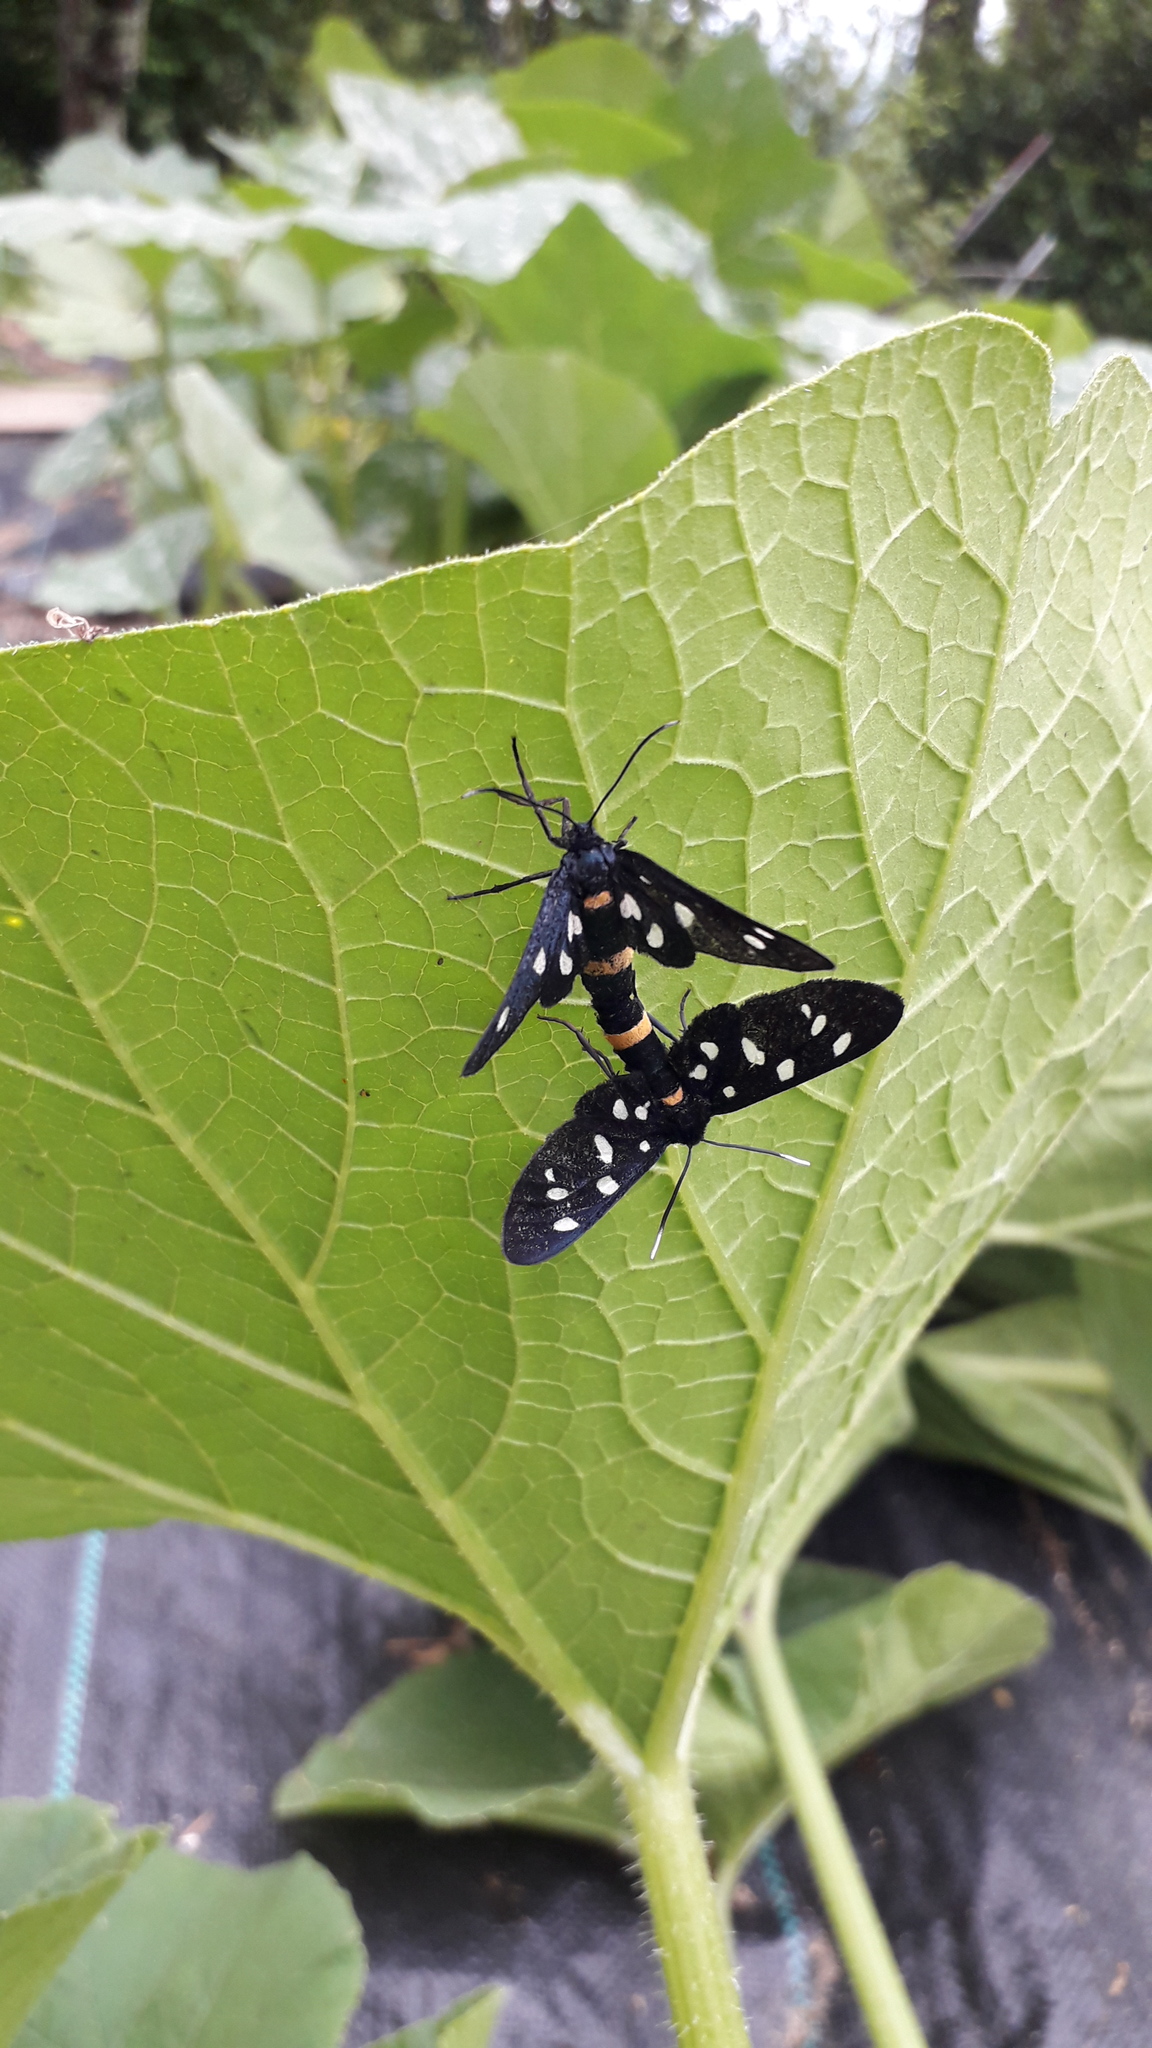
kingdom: Animalia
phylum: Arthropoda
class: Insecta
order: Lepidoptera
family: Erebidae
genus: Amata
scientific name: Amata phegea
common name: Nine-spotted
